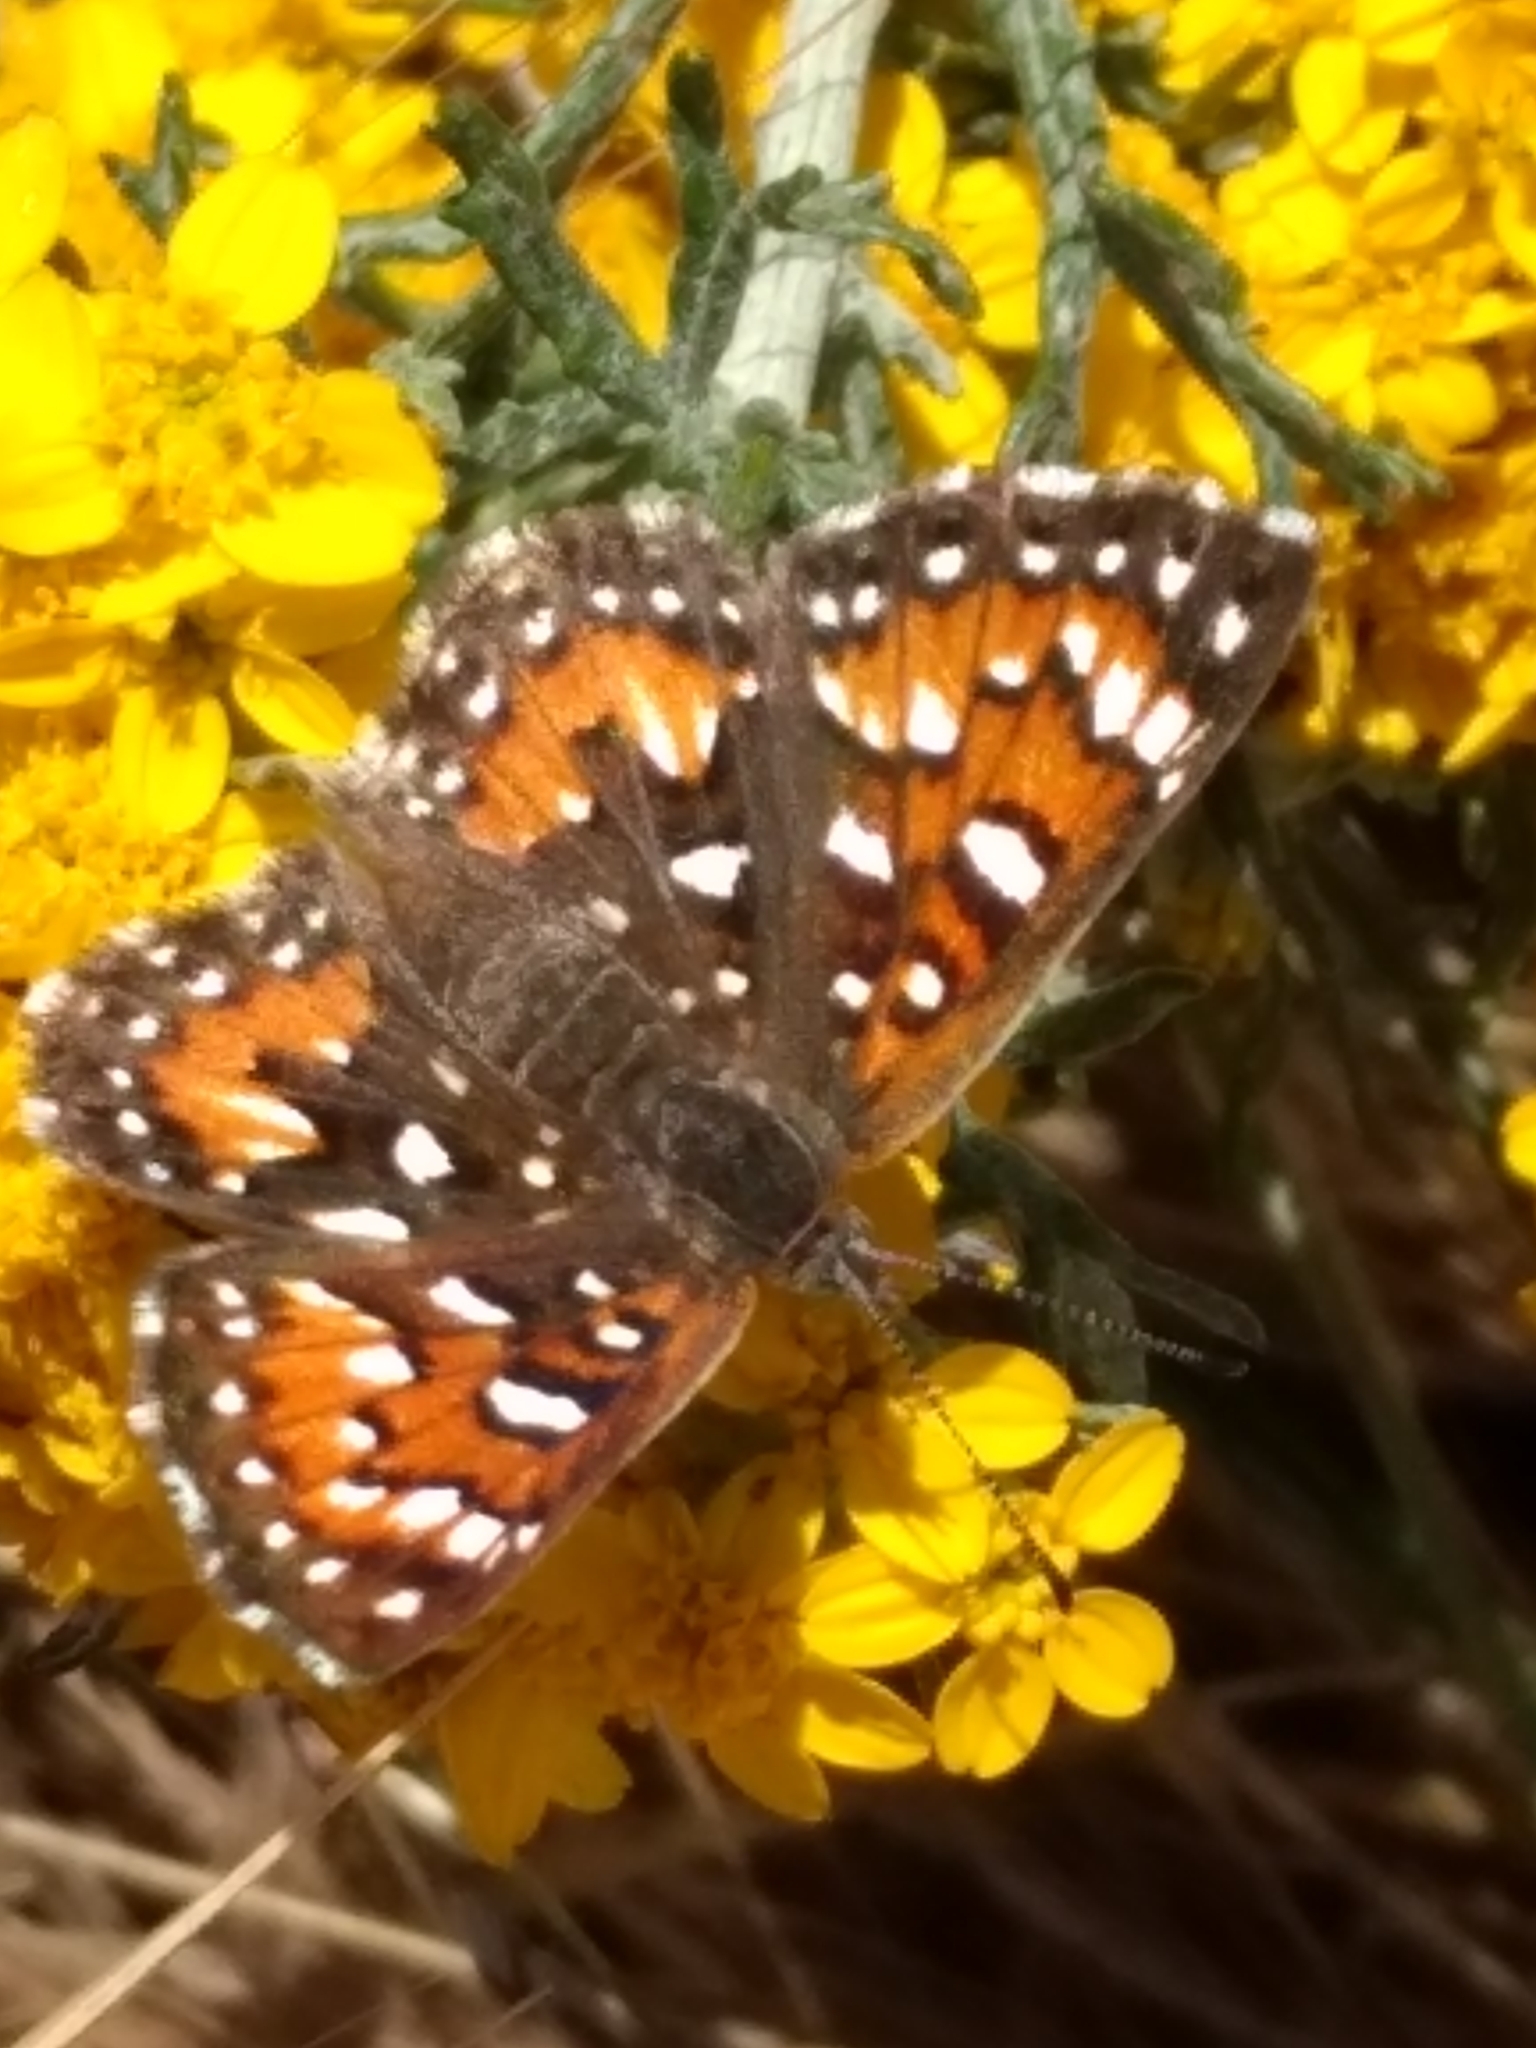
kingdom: Animalia
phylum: Arthropoda
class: Insecta
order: Lepidoptera
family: Riodinidae
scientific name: Riodinidae
